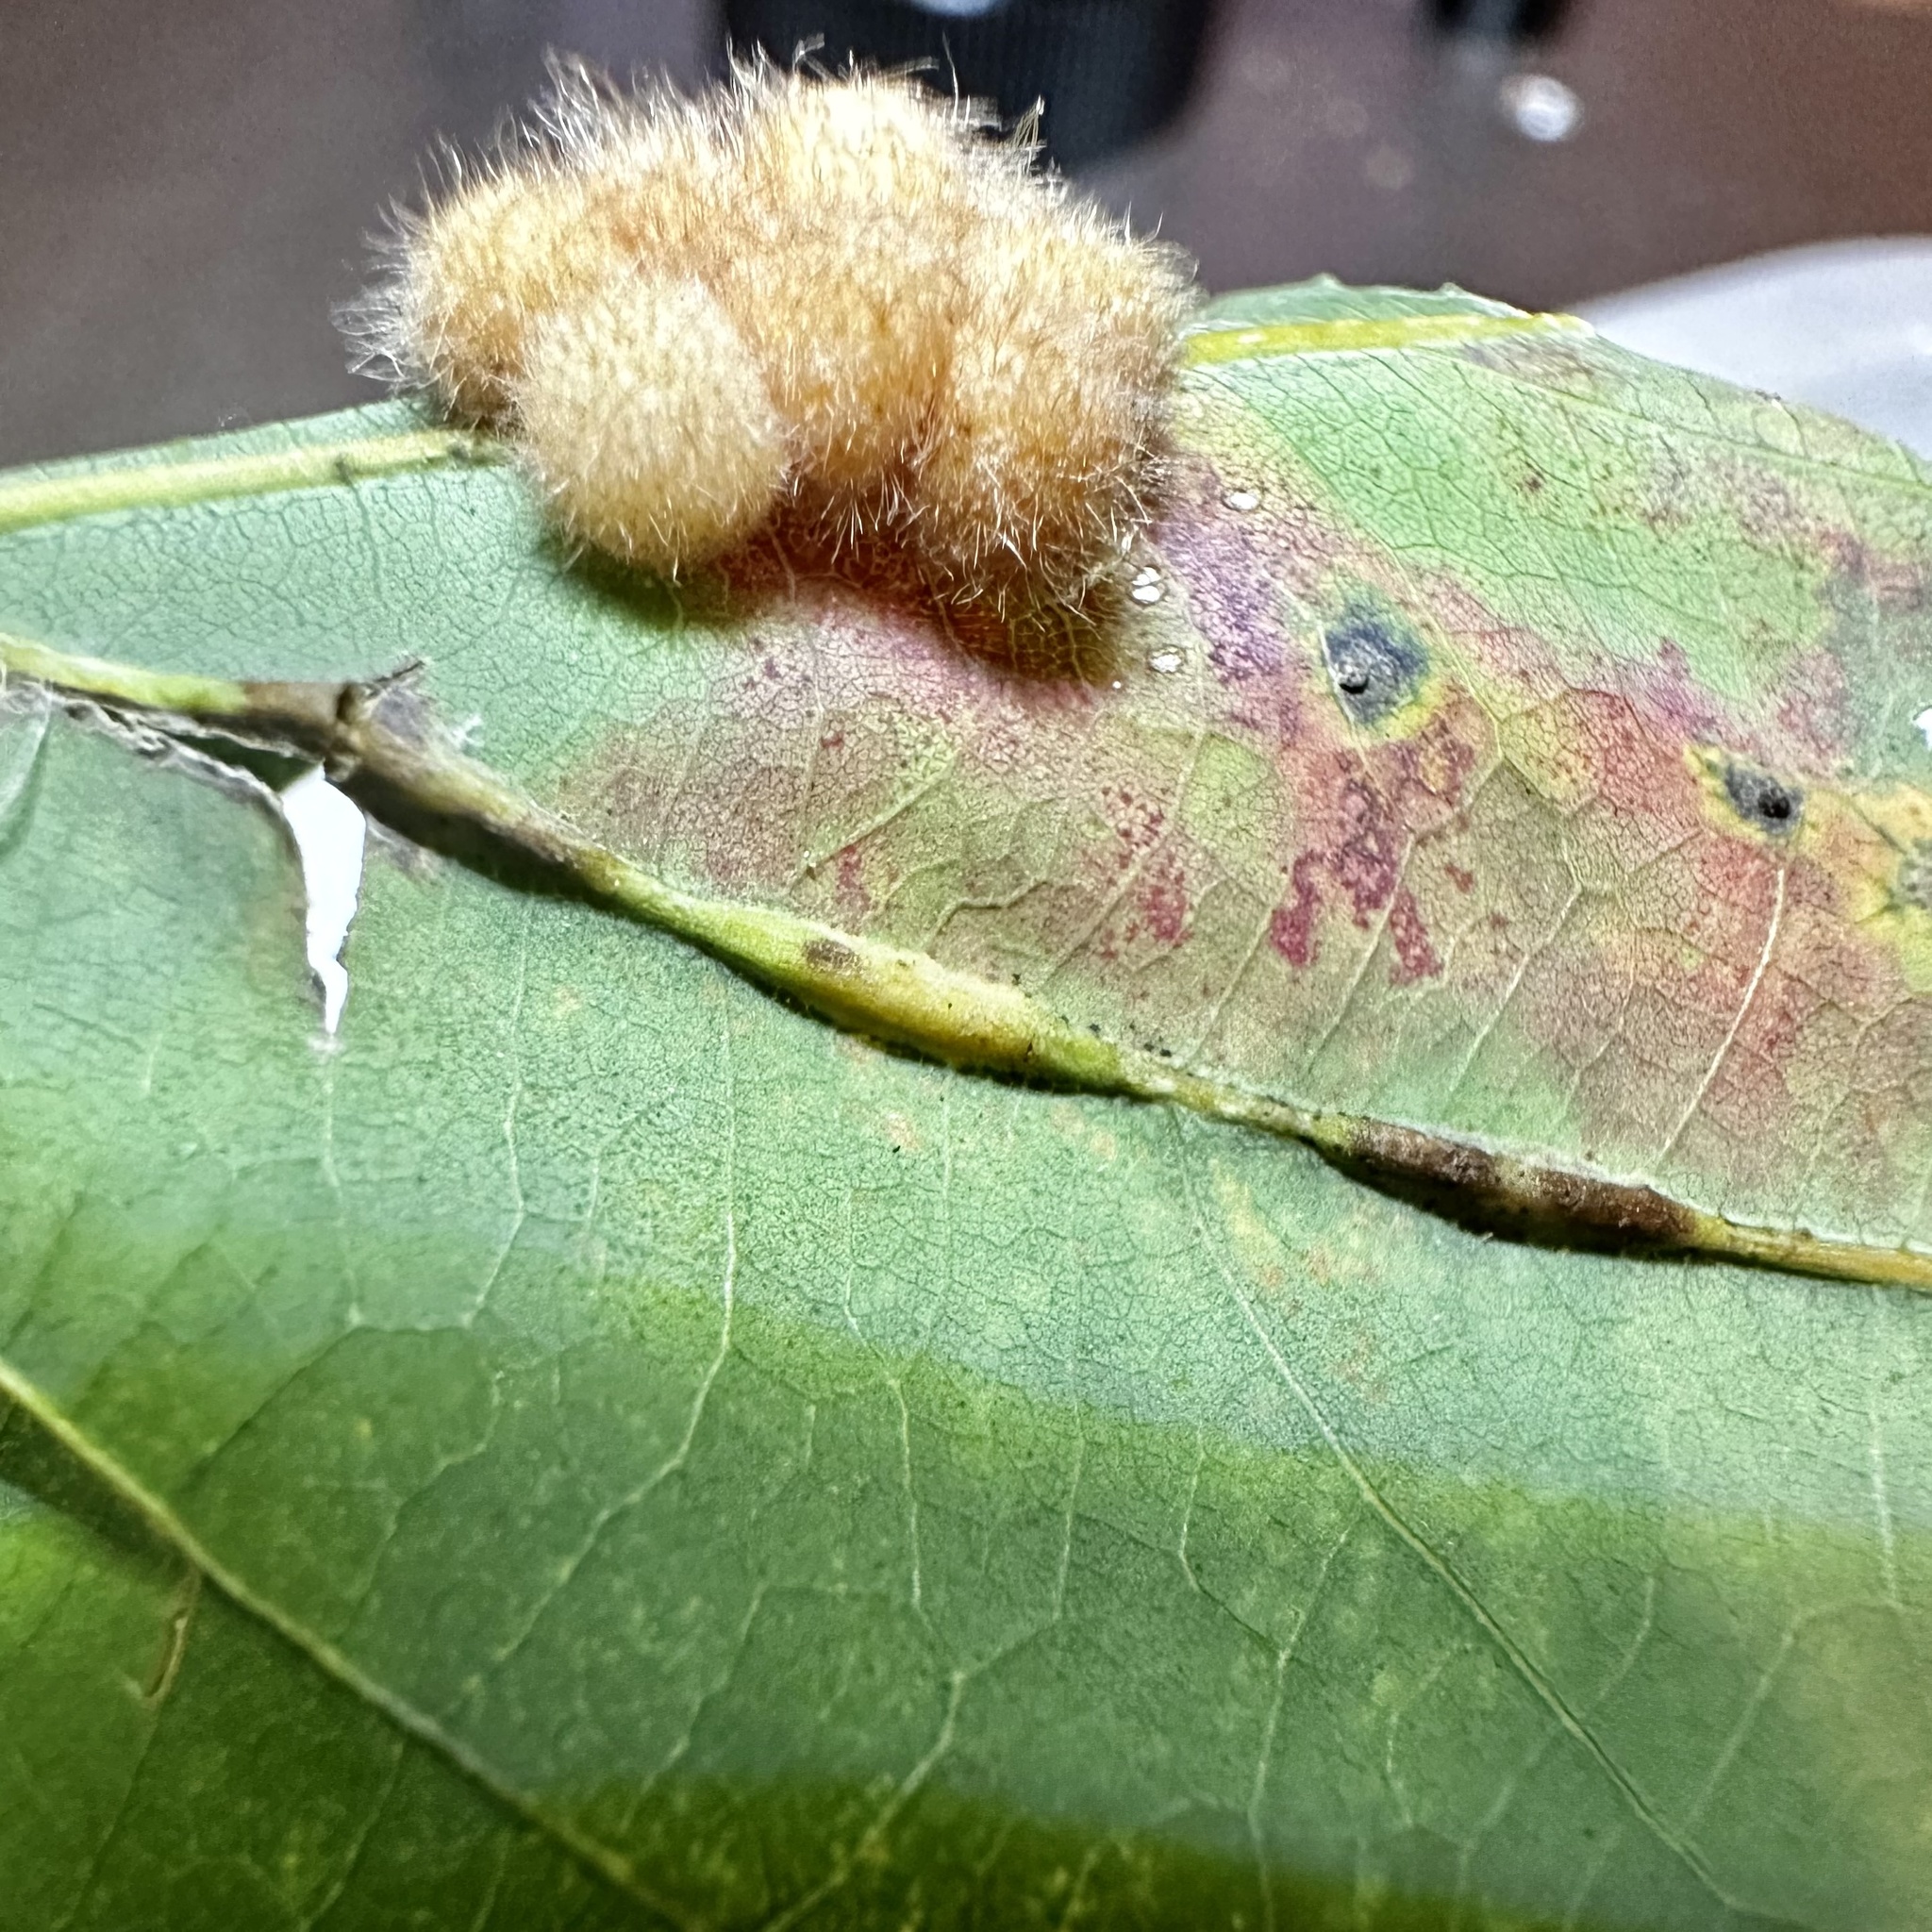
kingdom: Animalia
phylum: Arthropoda
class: Insecta
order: Hymenoptera
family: Cynipidae
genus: Andricus
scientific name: Andricus
